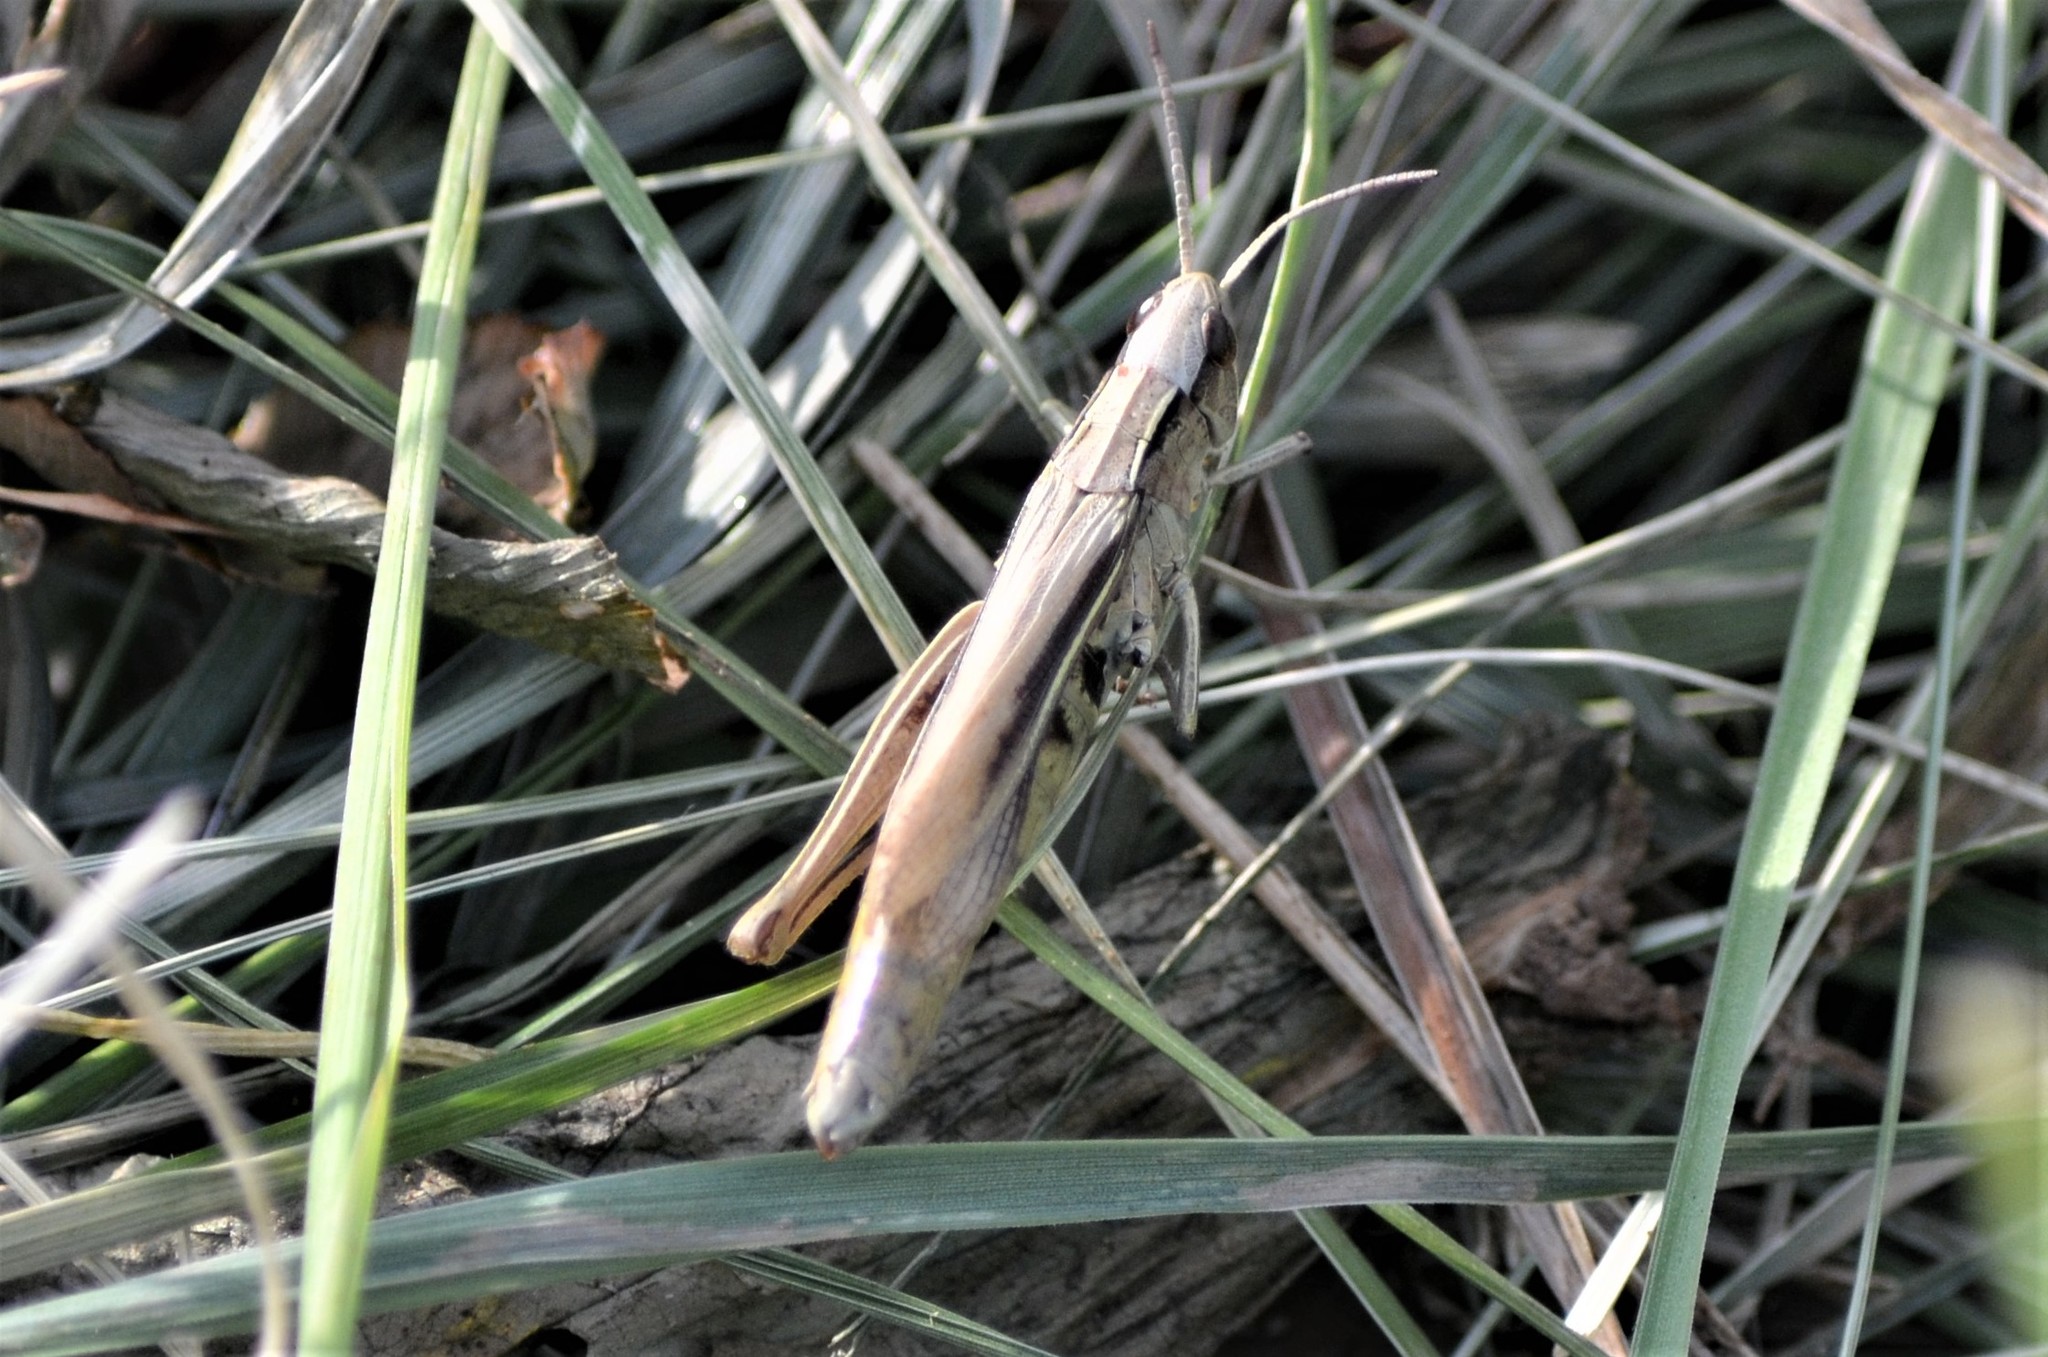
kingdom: Animalia
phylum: Arthropoda
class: Insecta
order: Orthoptera
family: Acrididae
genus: Chorthippus
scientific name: Chorthippus albomarginatus
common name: Lesser marsh grasshopper
